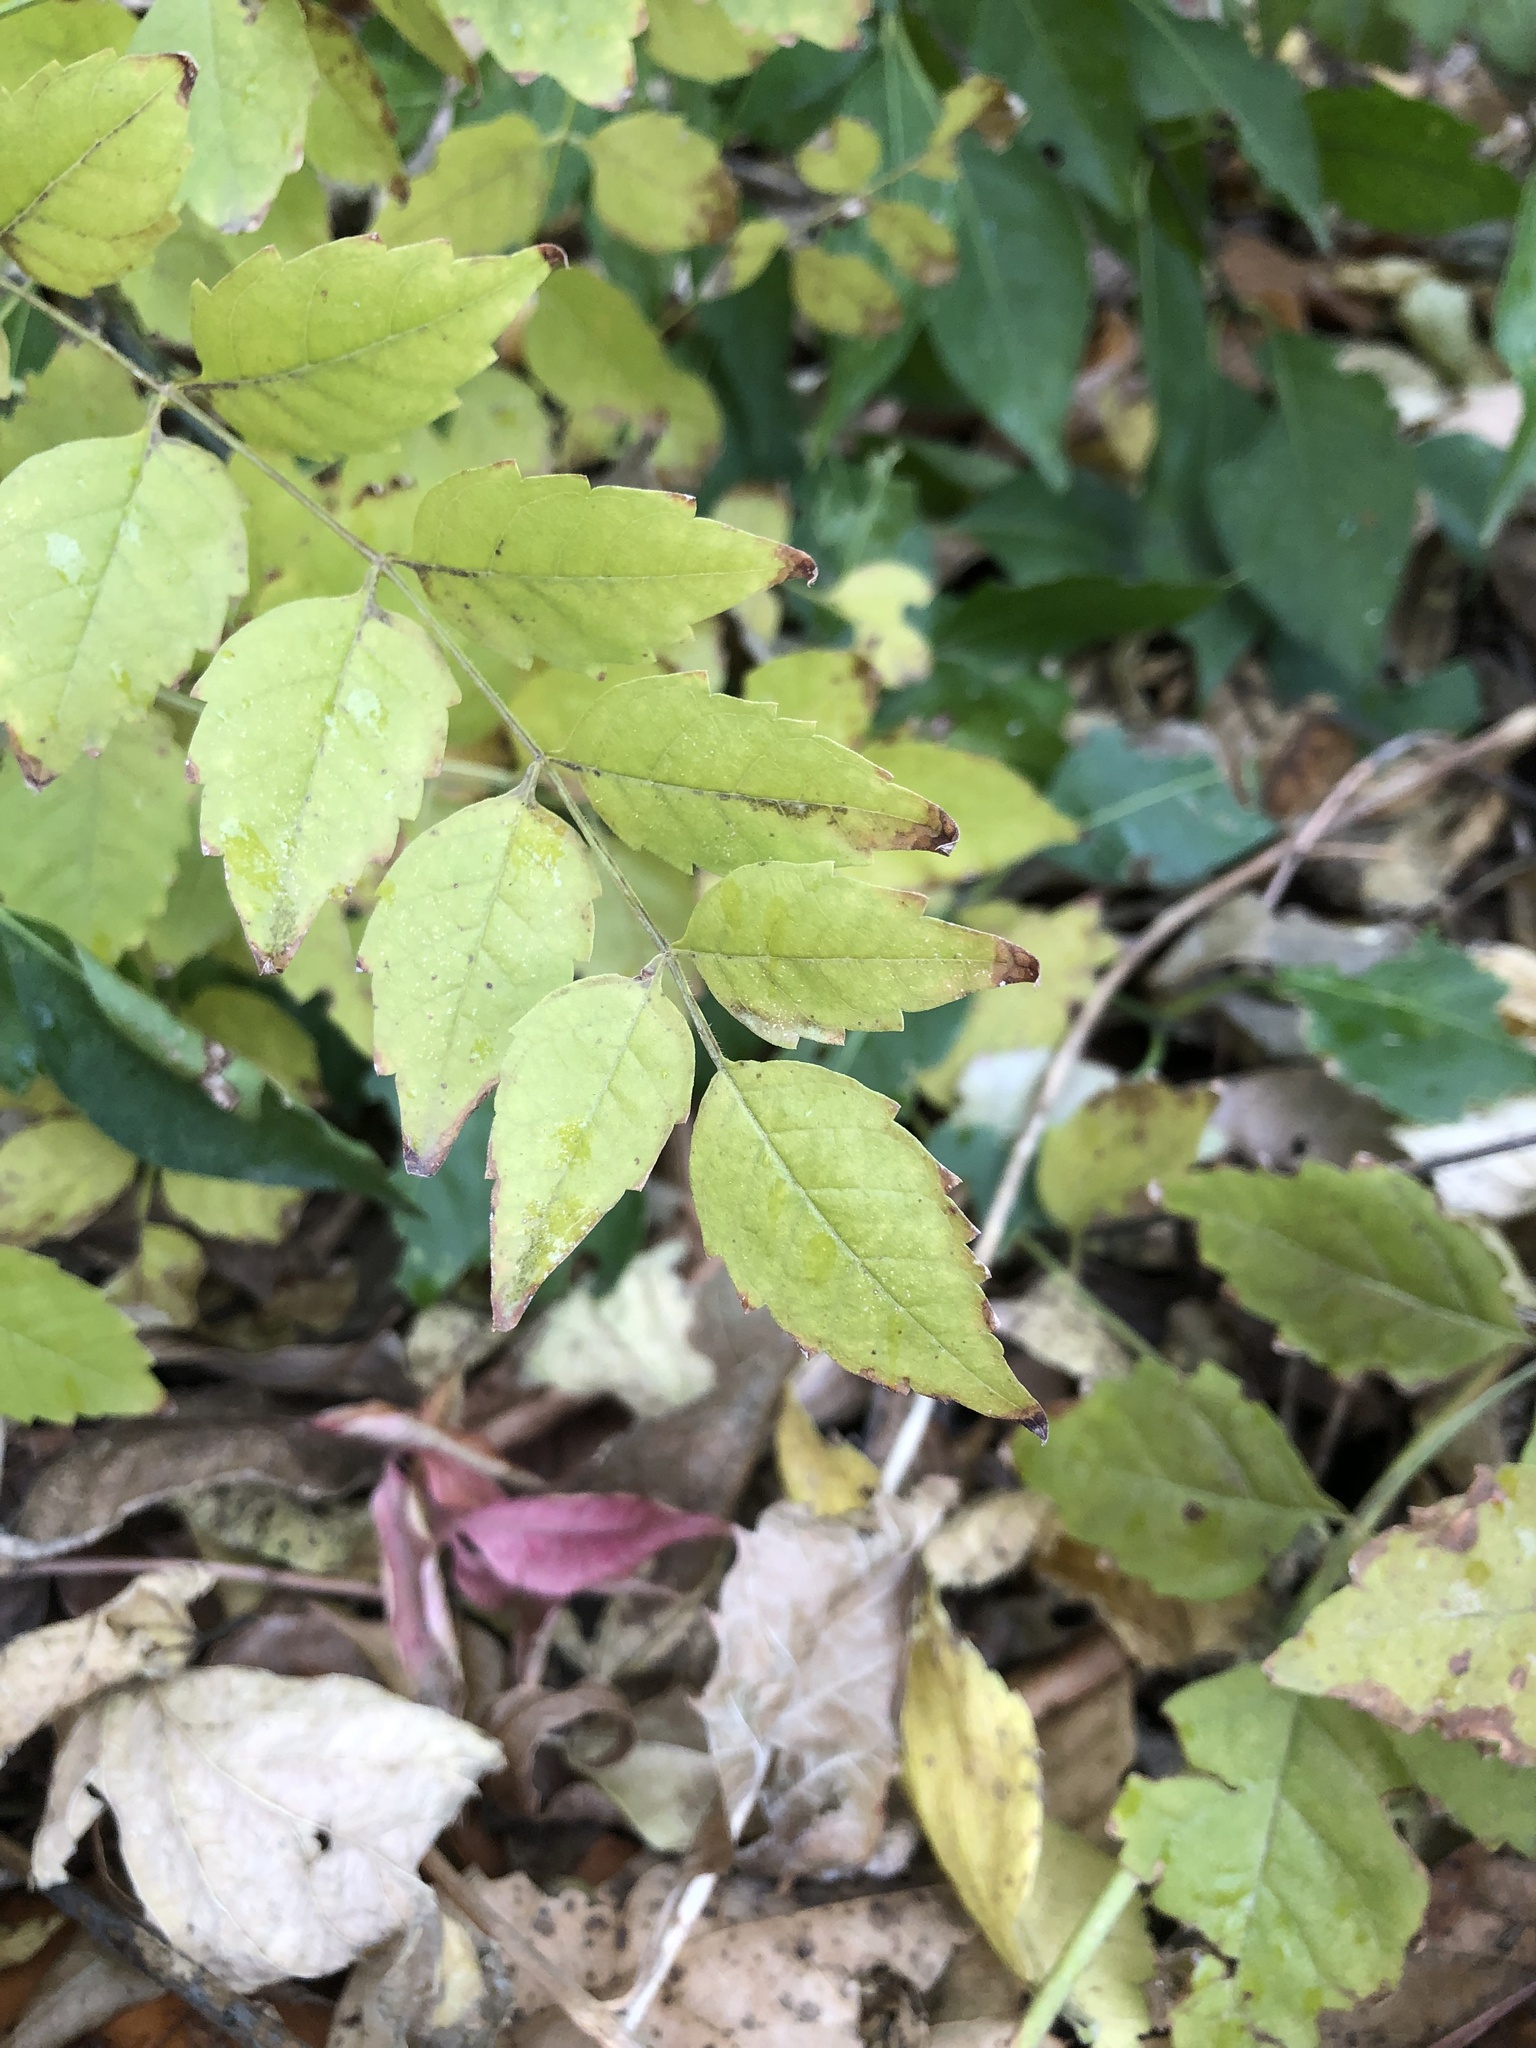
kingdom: Plantae
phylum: Tracheophyta
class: Magnoliopsida
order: Lamiales
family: Bignoniaceae
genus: Campsis
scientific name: Campsis radicans
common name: Trumpet-creeper
